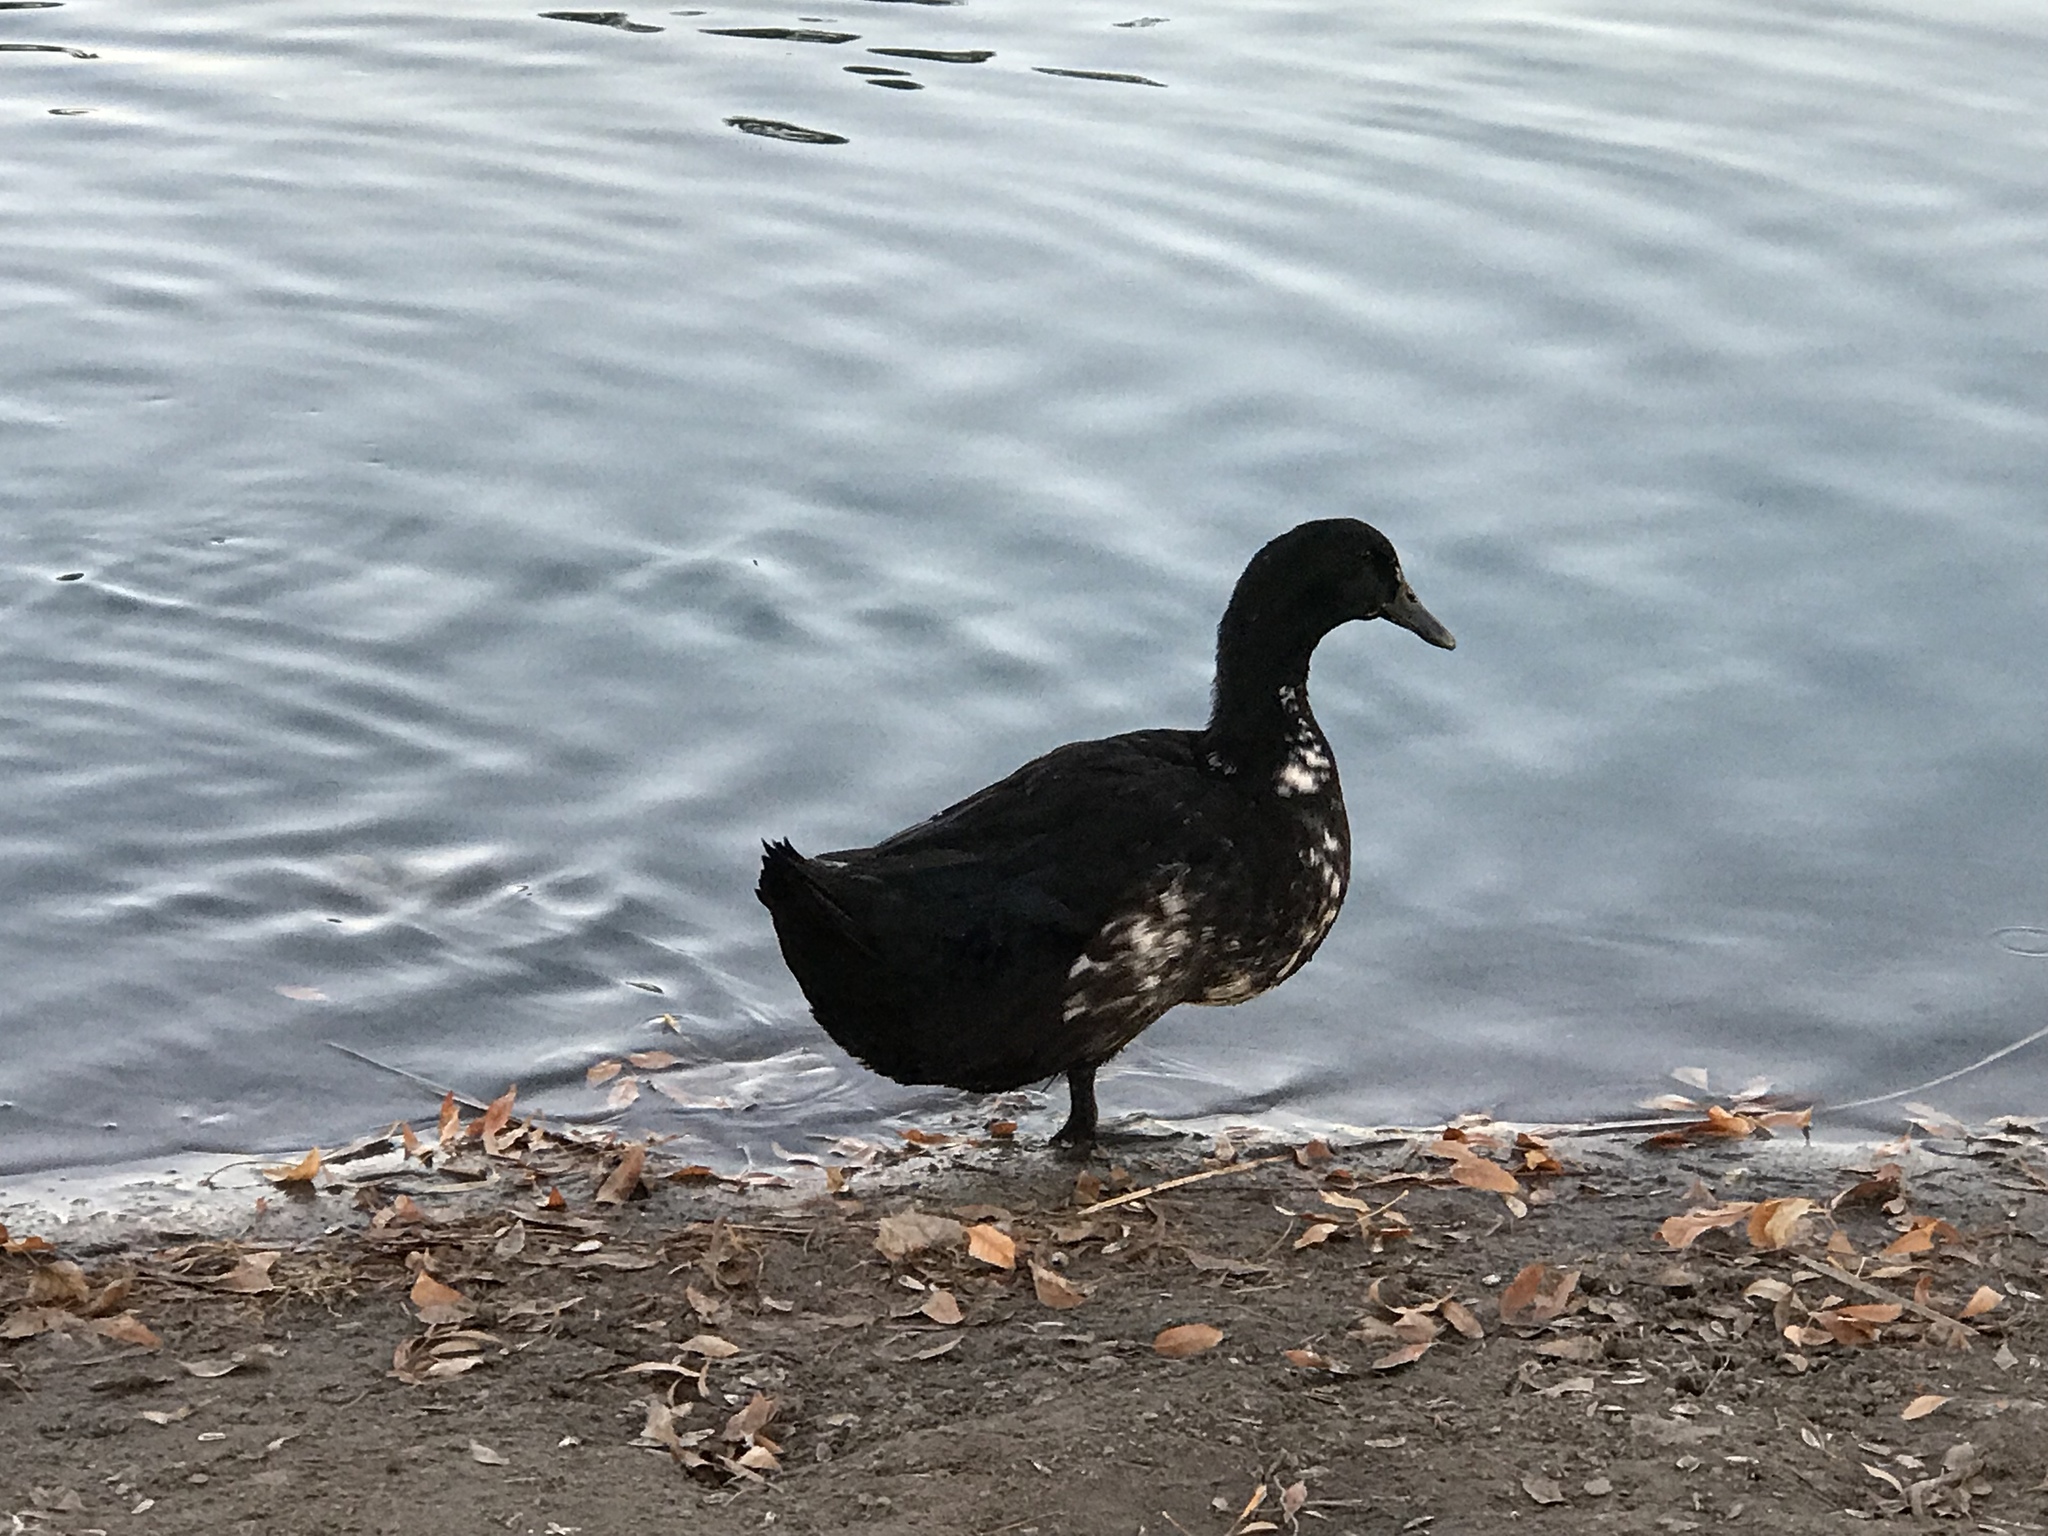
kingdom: Animalia
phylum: Chordata
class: Aves
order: Anseriformes
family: Anatidae
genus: Anas
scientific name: Anas platyrhynchos
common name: Mallard
